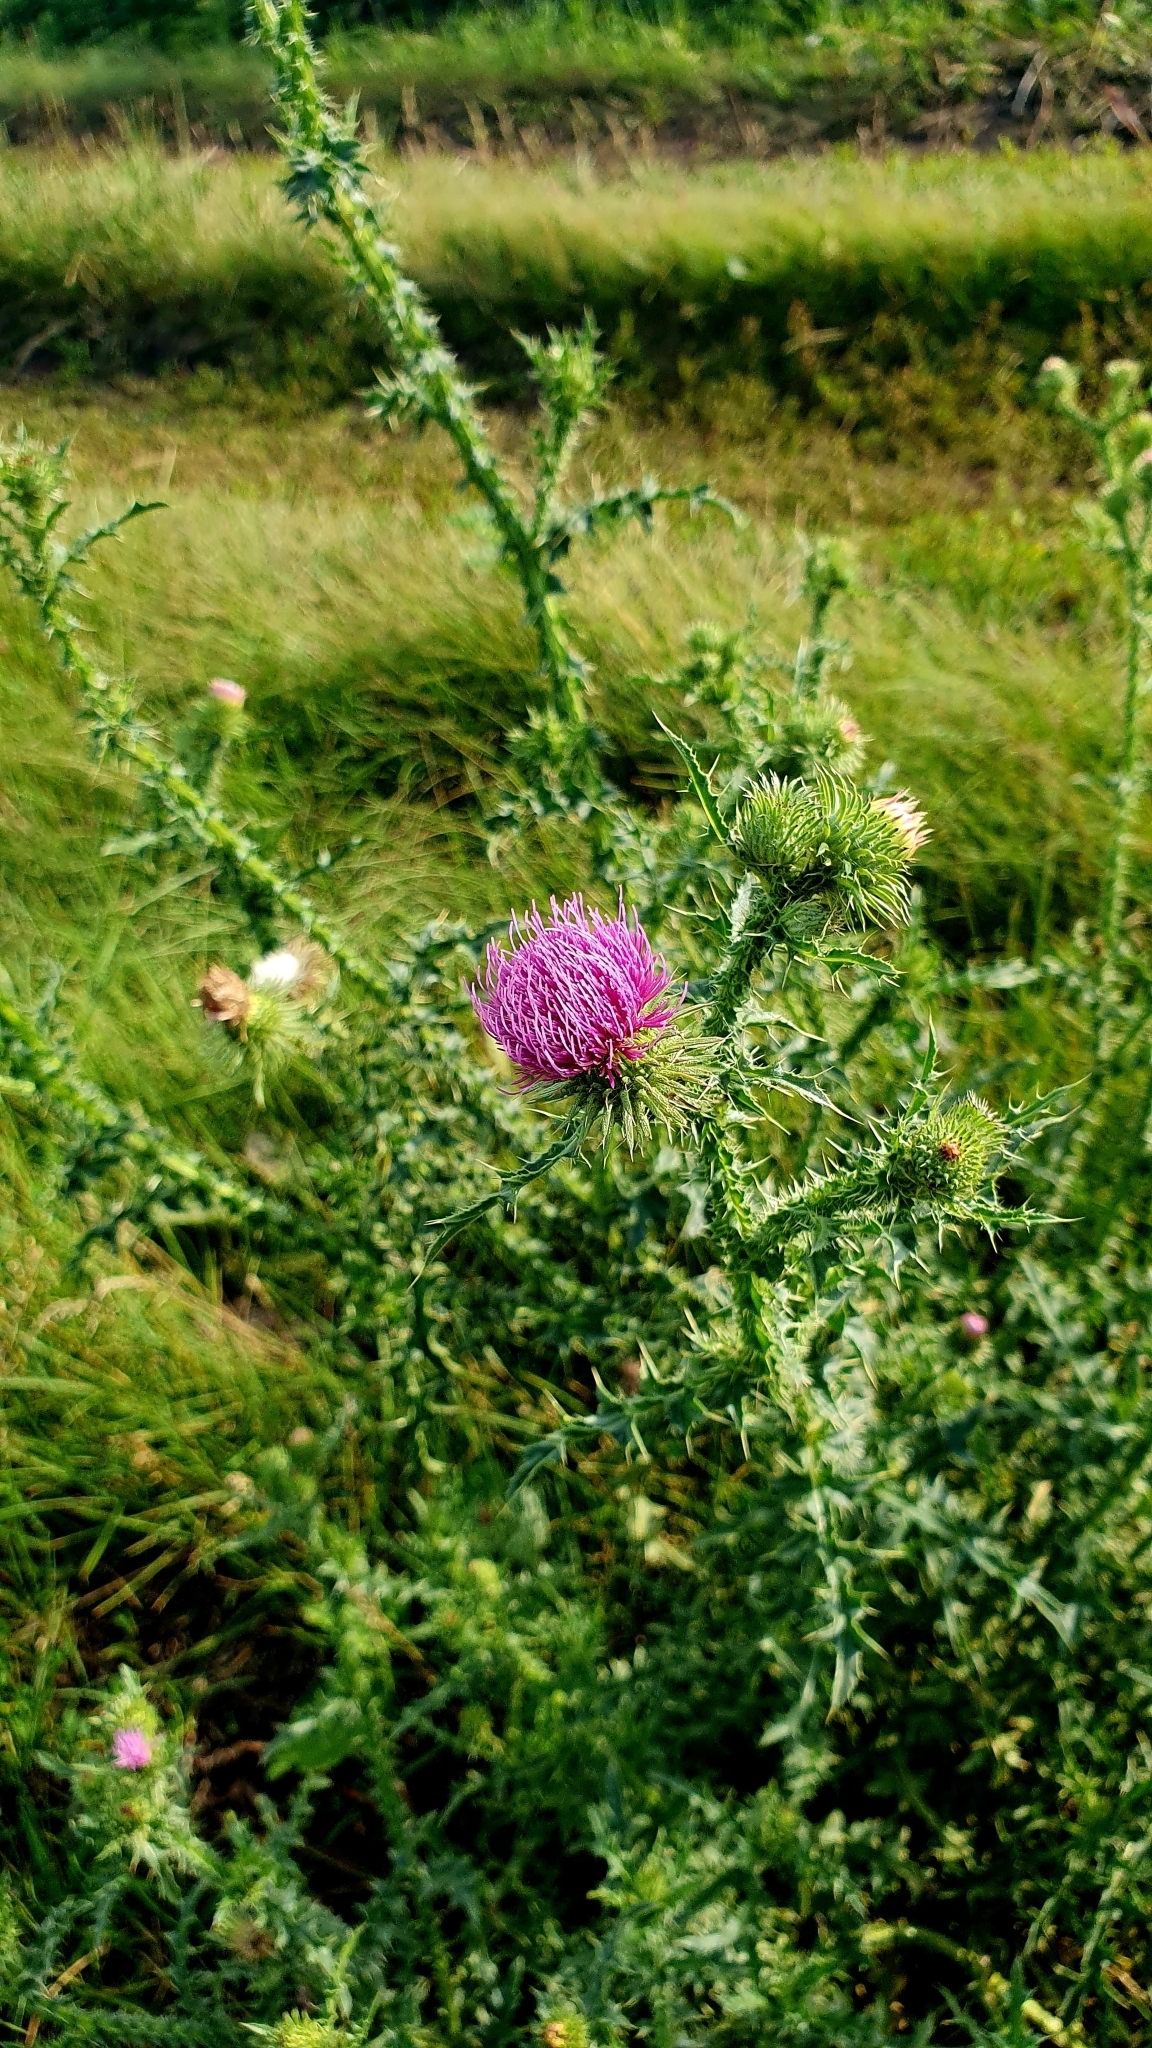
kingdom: Plantae
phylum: Tracheophyta
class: Magnoliopsida
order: Asterales
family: Asteraceae
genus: Carduus
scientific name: Carduus acanthoides
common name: Plumeless thistle
